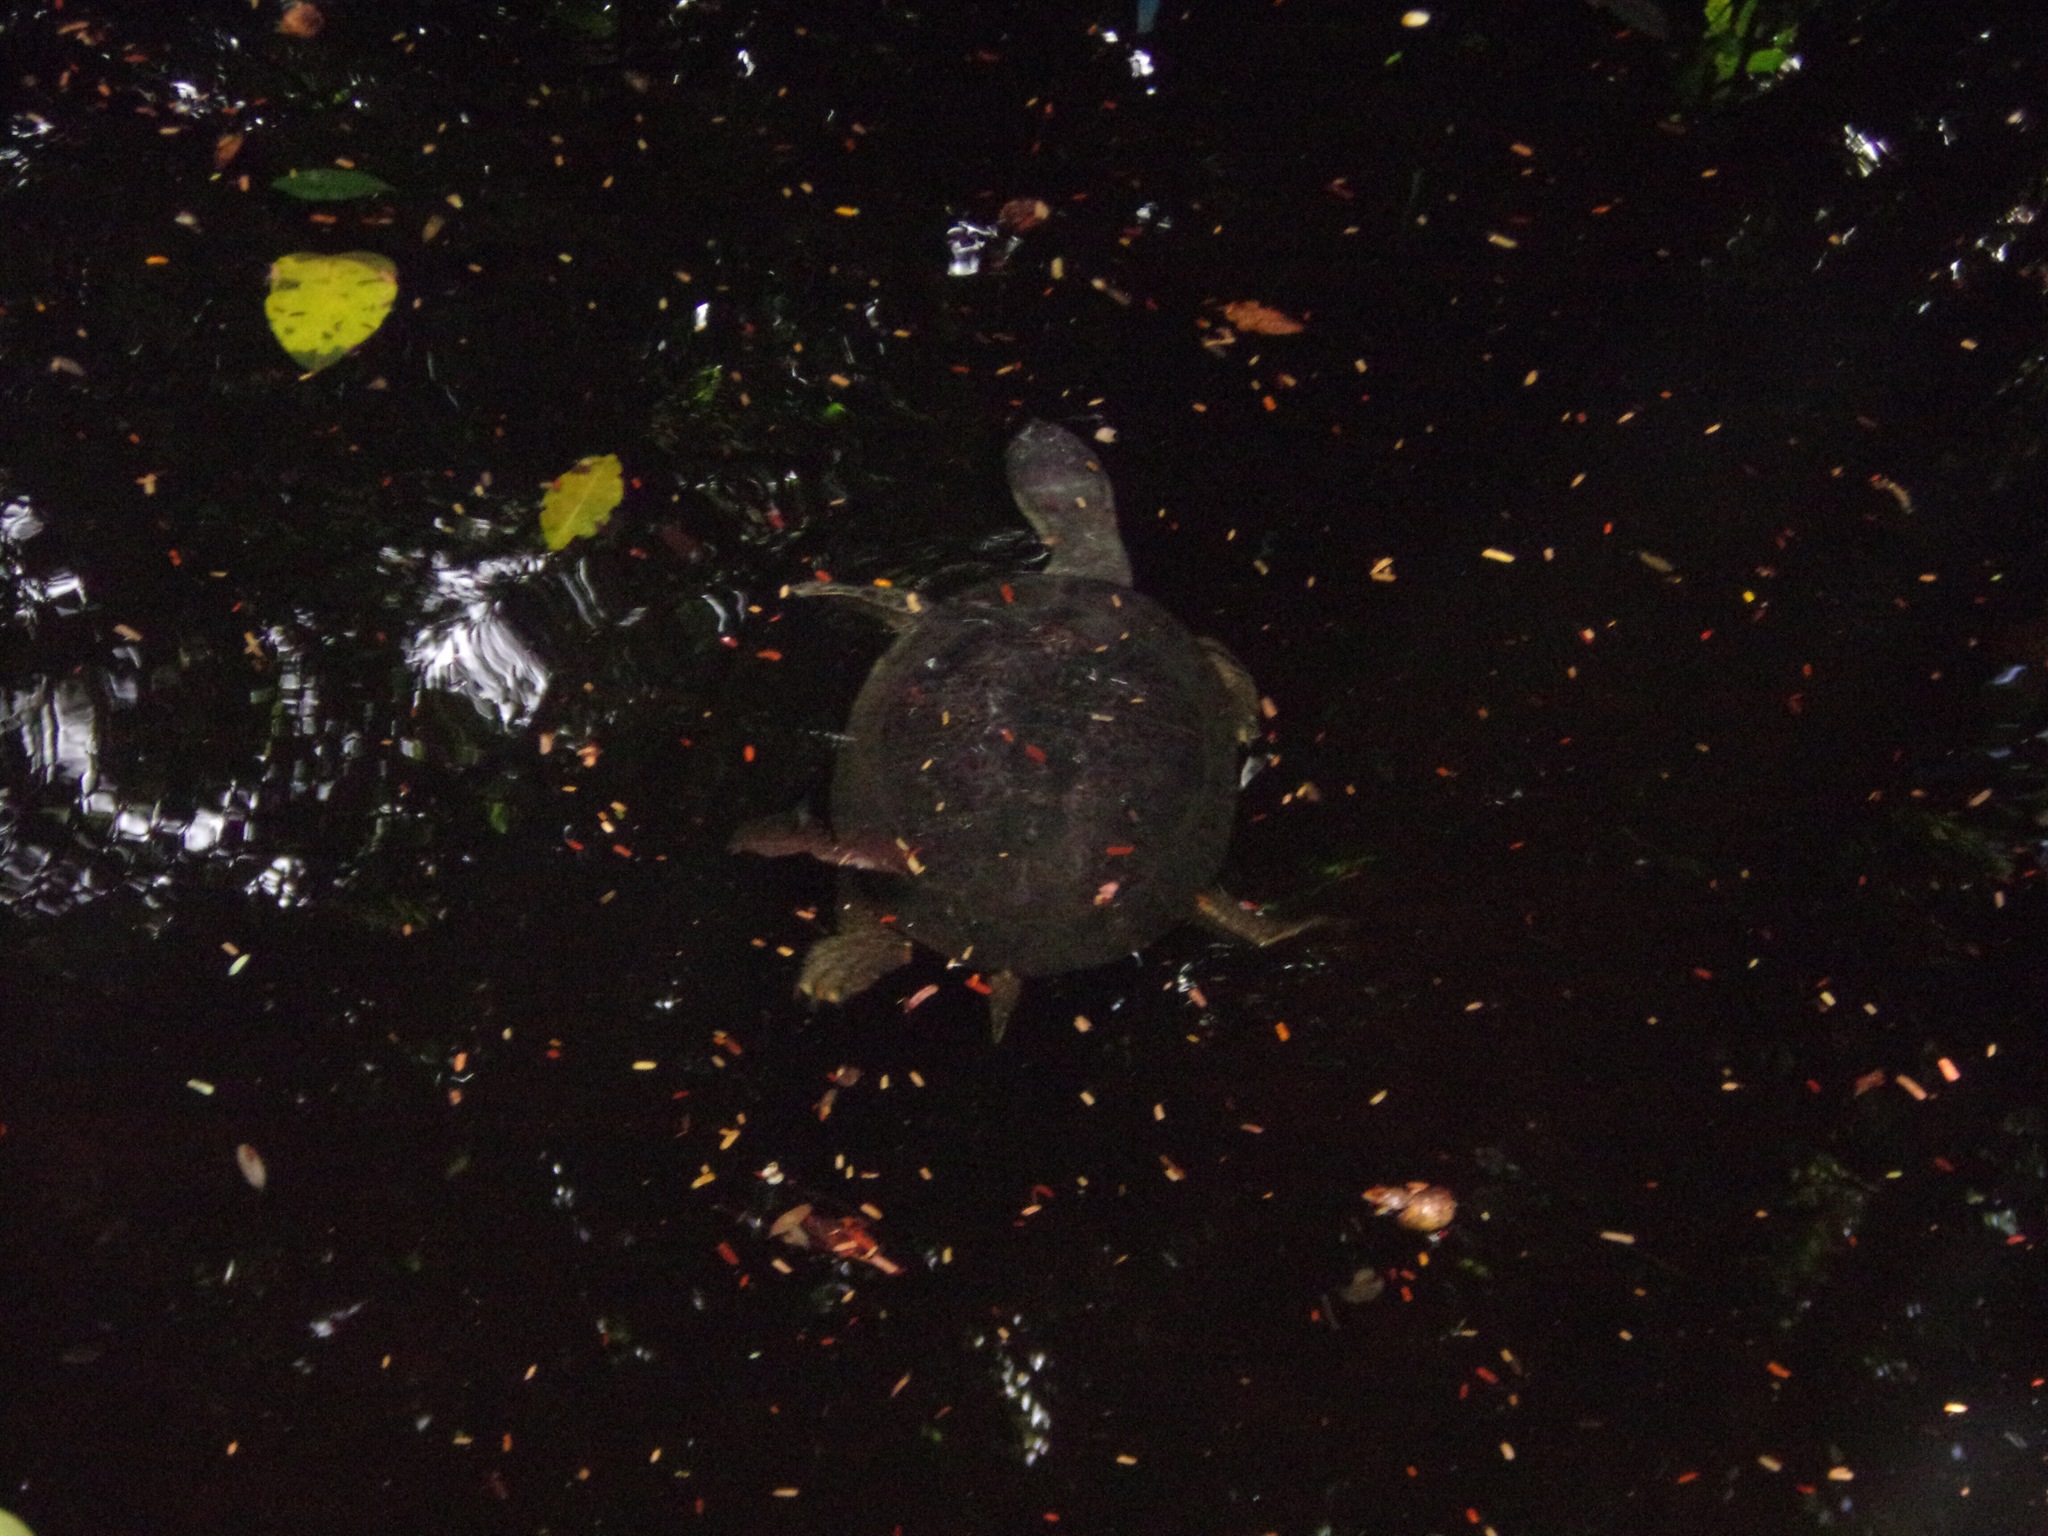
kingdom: Animalia
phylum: Chordata
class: Testudines
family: Chelidae
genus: Phrynops
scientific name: Phrynops geoffroanus
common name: Side-necked turtle of geoffroy
